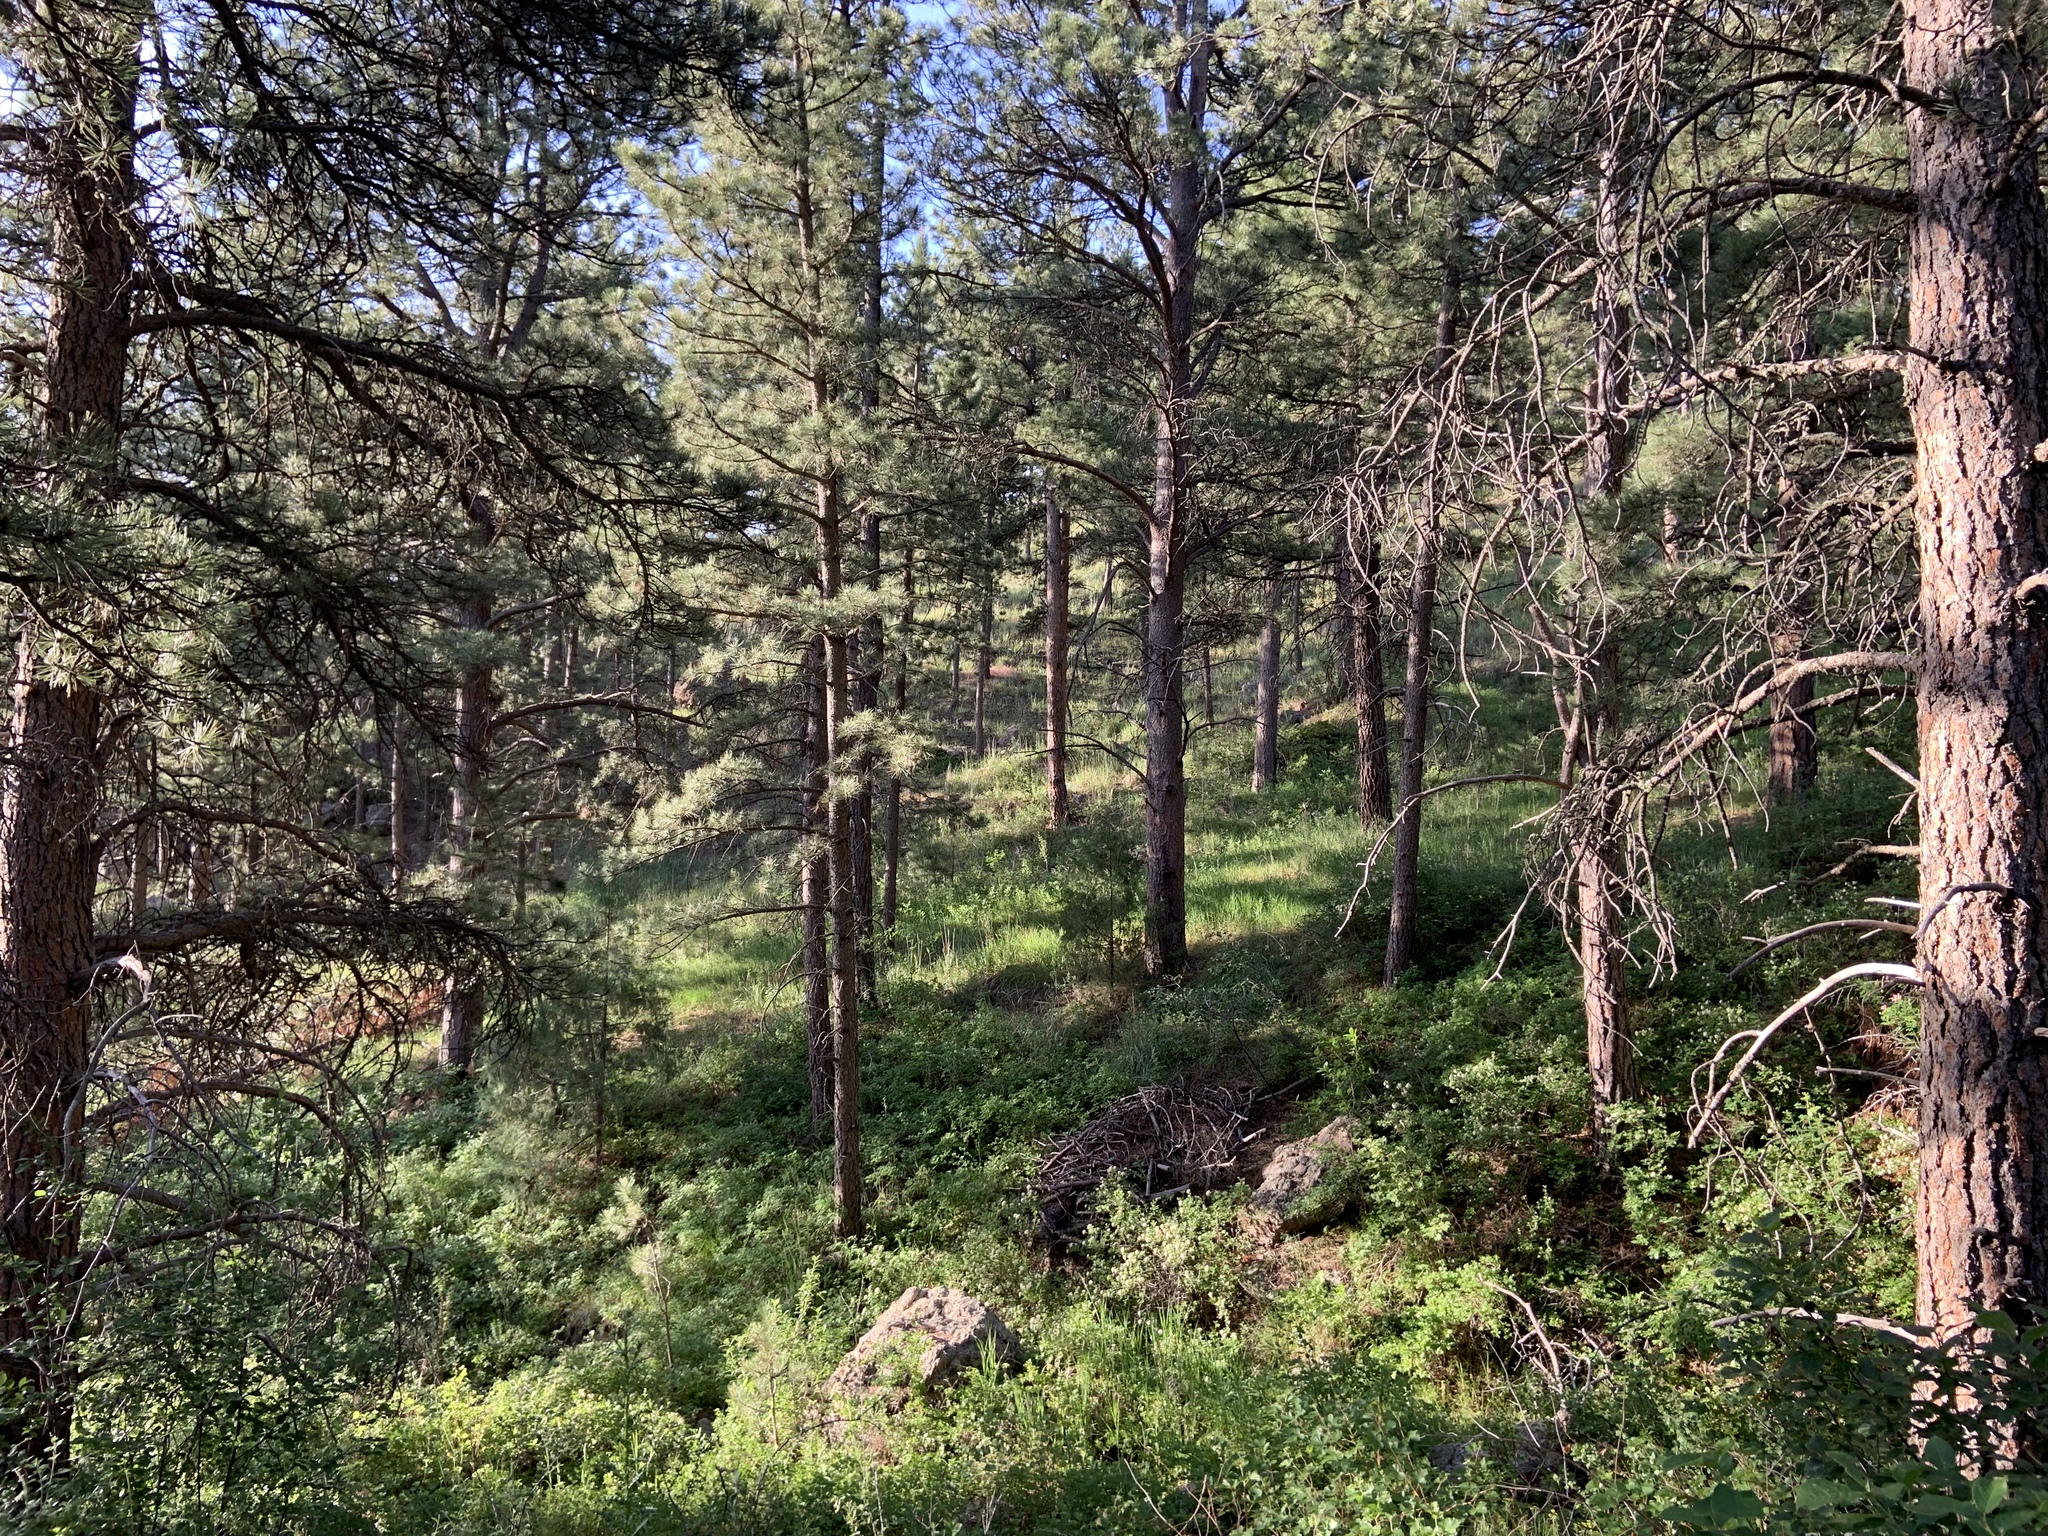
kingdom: Plantae
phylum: Tracheophyta
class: Pinopsida
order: Pinales
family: Pinaceae
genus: Pinus
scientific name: Pinus ponderosa
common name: Western yellow-pine
